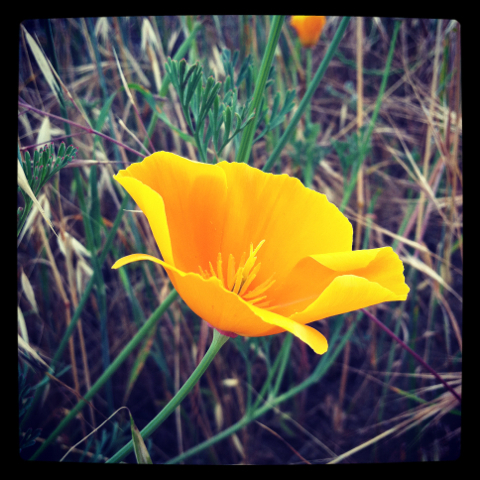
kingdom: Plantae
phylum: Tracheophyta
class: Magnoliopsida
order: Ranunculales
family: Papaveraceae
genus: Eschscholzia
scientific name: Eschscholzia californica
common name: California poppy
